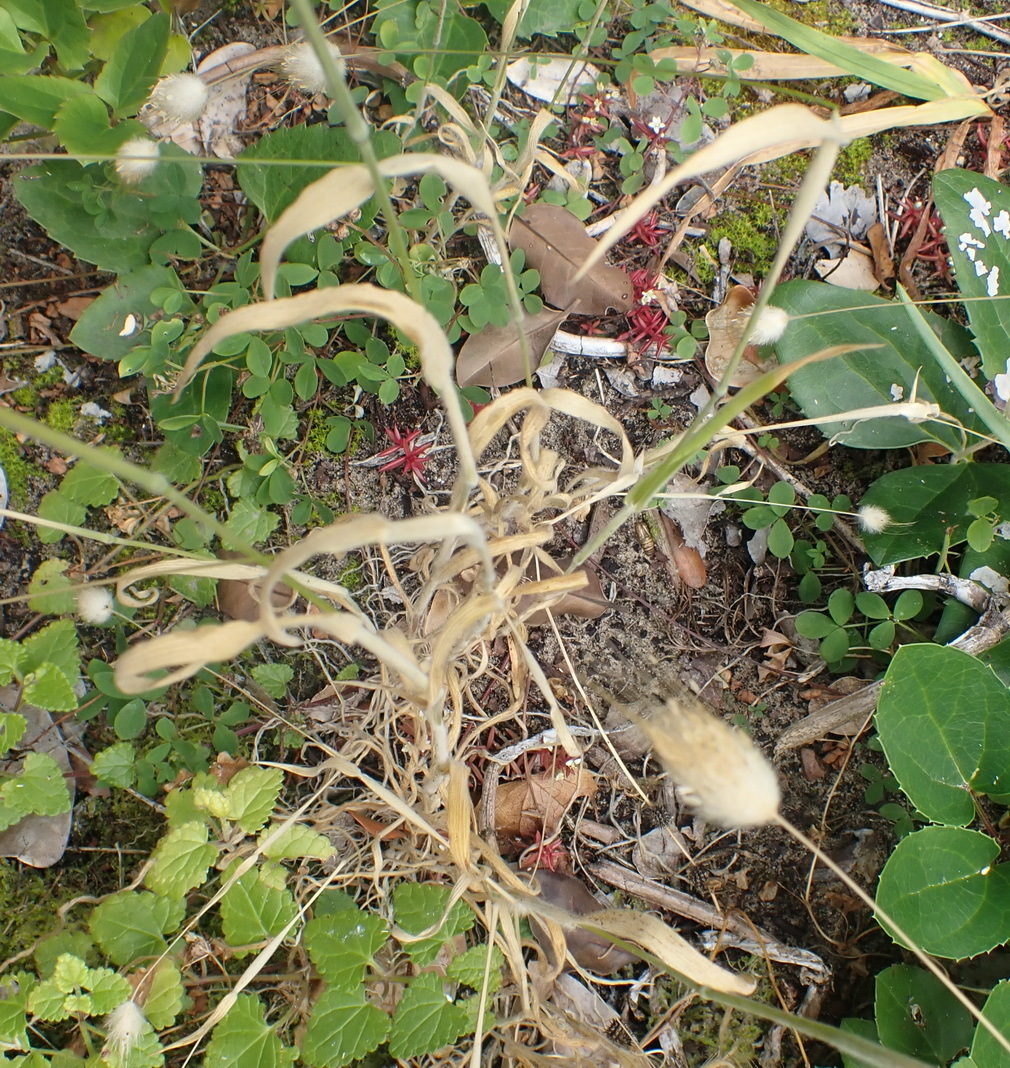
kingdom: Plantae
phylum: Tracheophyta
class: Liliopsida
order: Poales
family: Poaceae
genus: Lagurus
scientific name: Lagurus ovatus
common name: Hare's-tail
